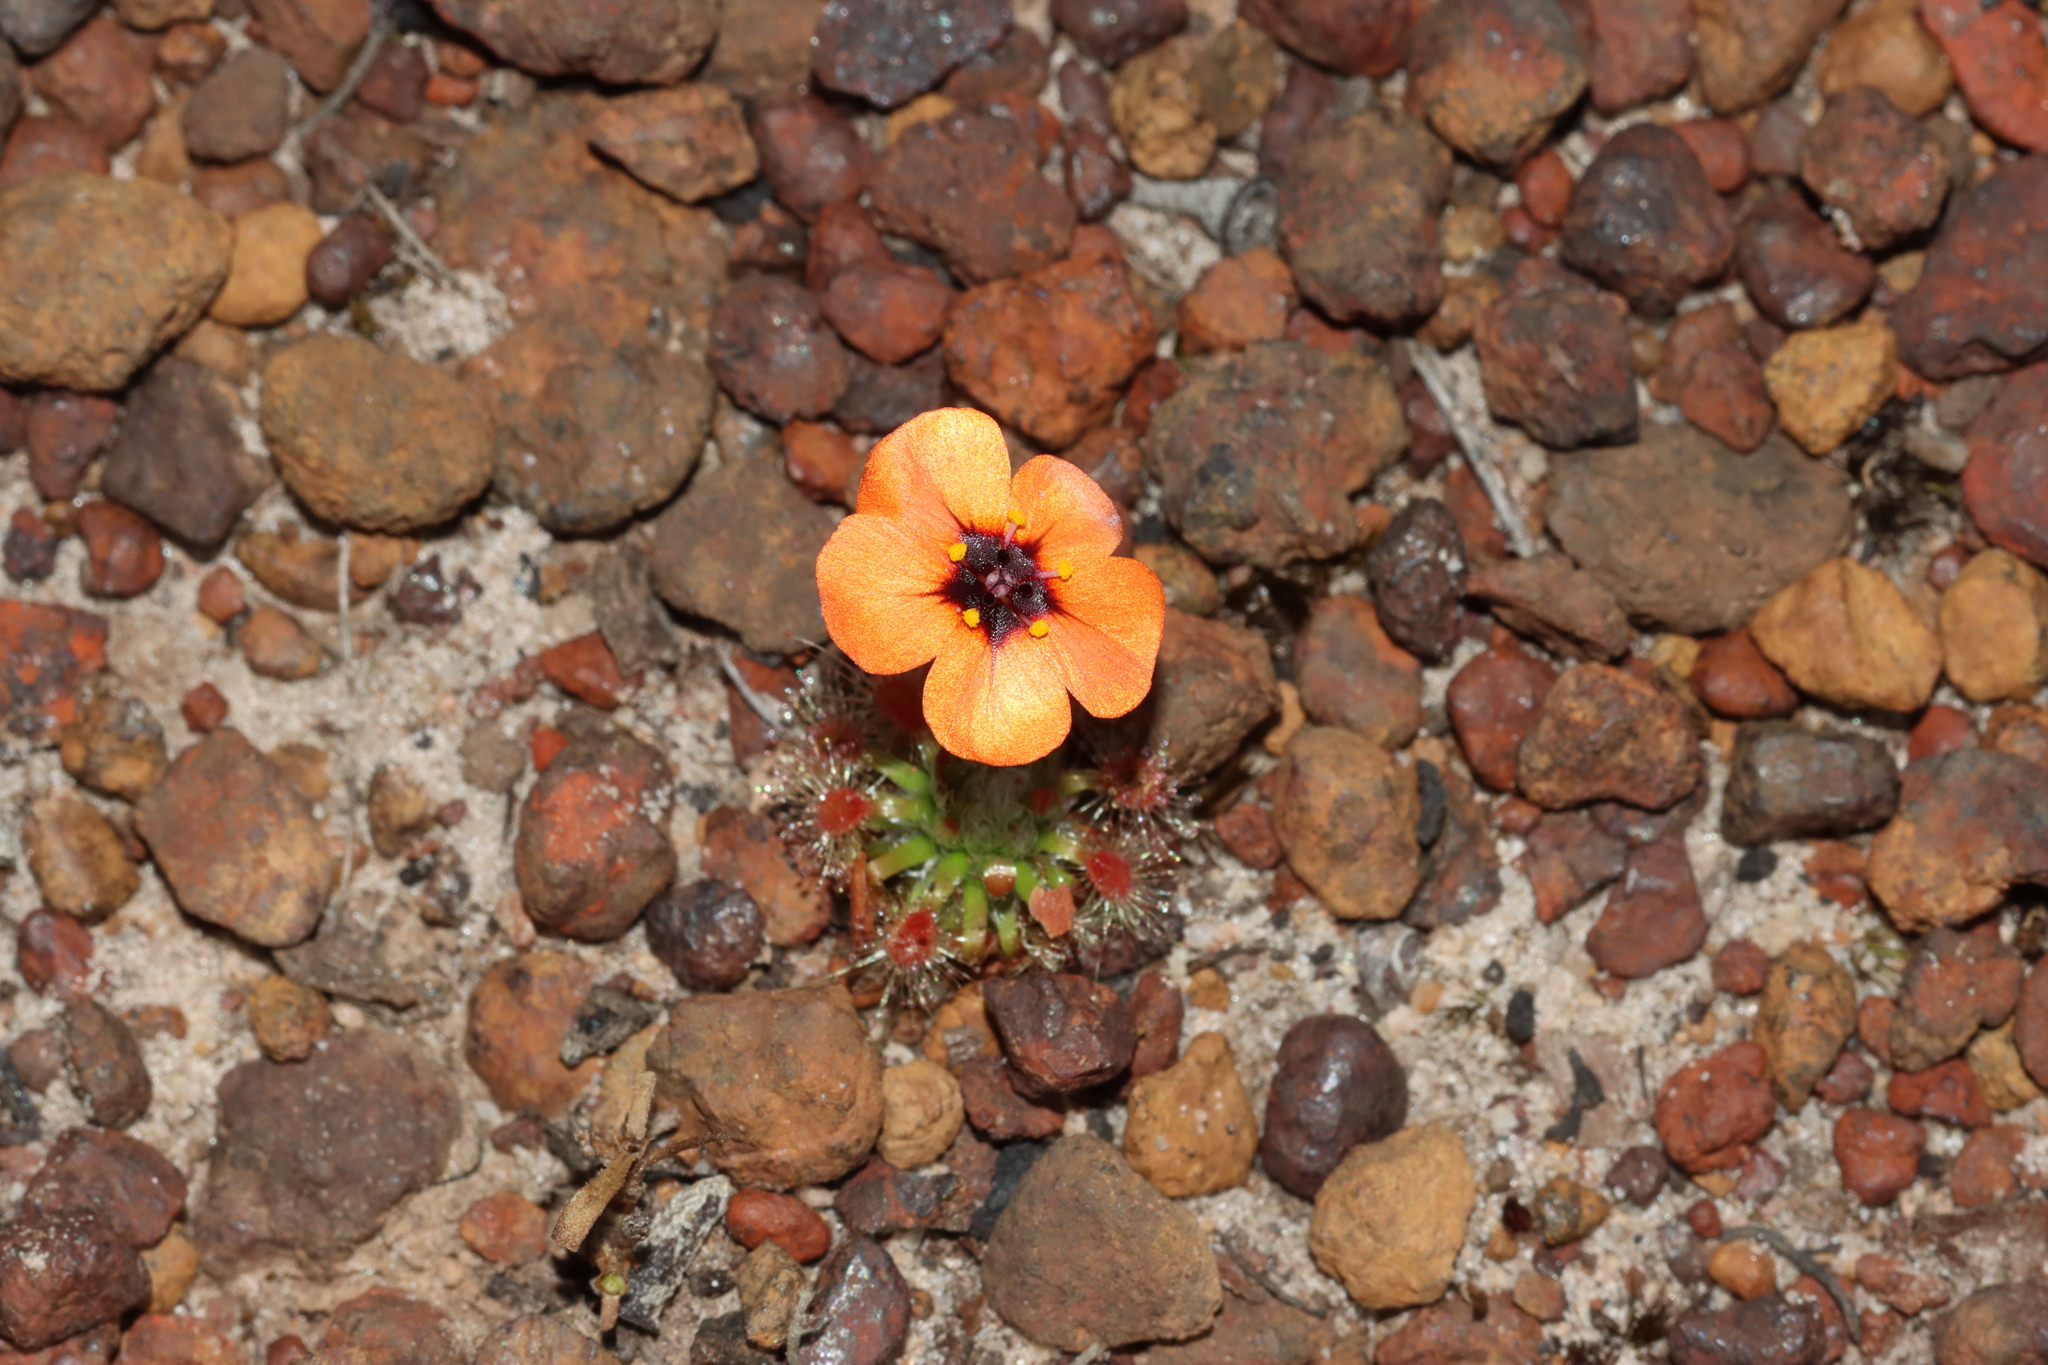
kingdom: Plantae
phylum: Tracheophyta
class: Magnoliopsida
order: Caryophyllales
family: Droseraceae
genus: Drosera
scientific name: Drosera hyperostigma
